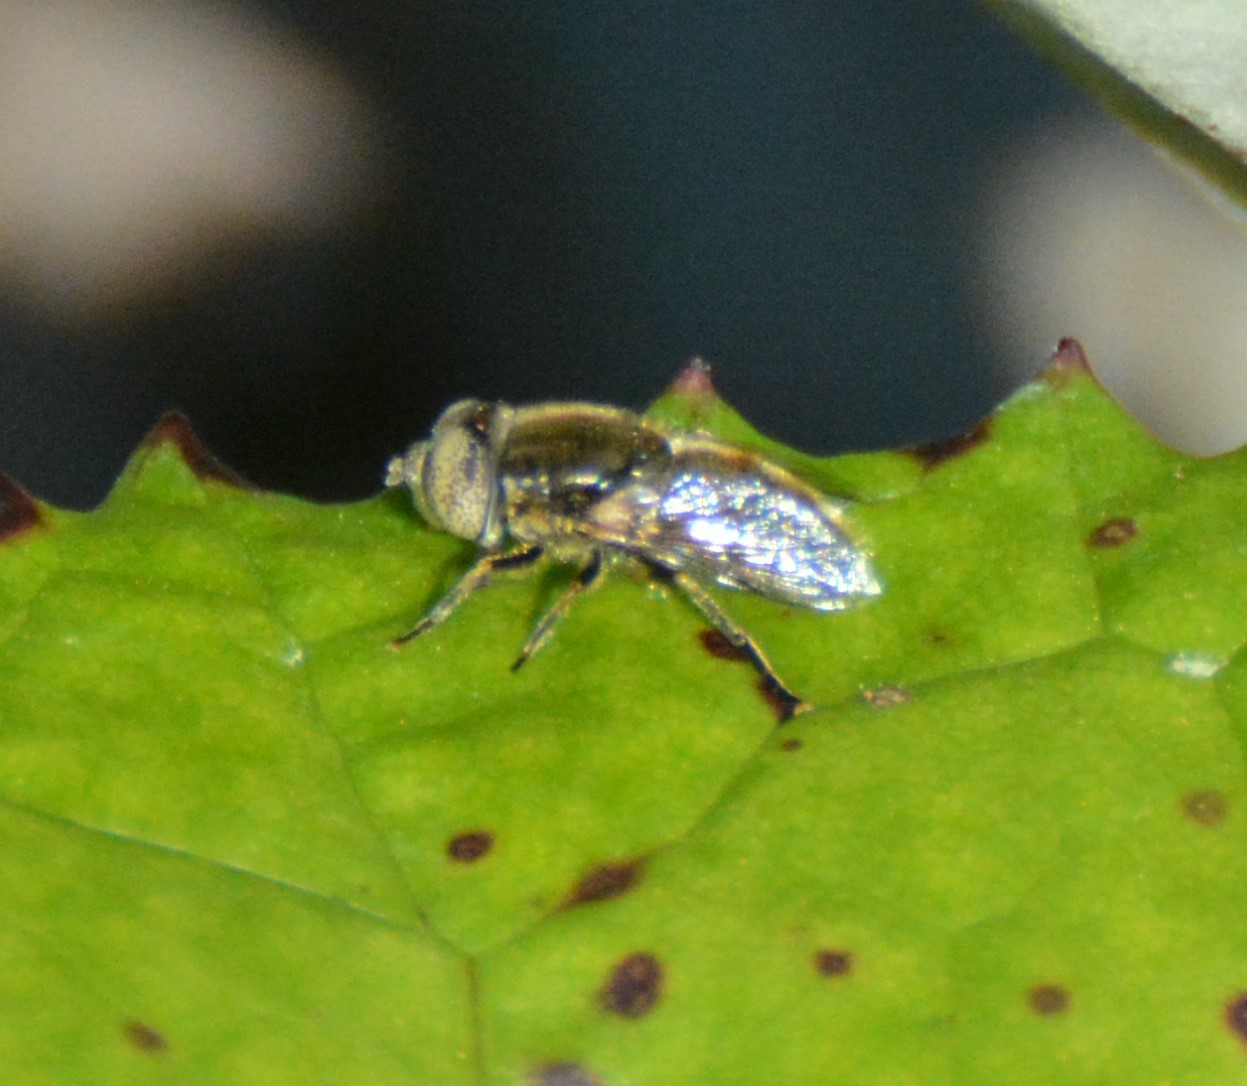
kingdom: Animalia
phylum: Arthropoda
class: Insecta
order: Diptera
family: Syrphidae
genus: Eristalinus
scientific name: Eristalinus aeneus
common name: Syrphid fly
